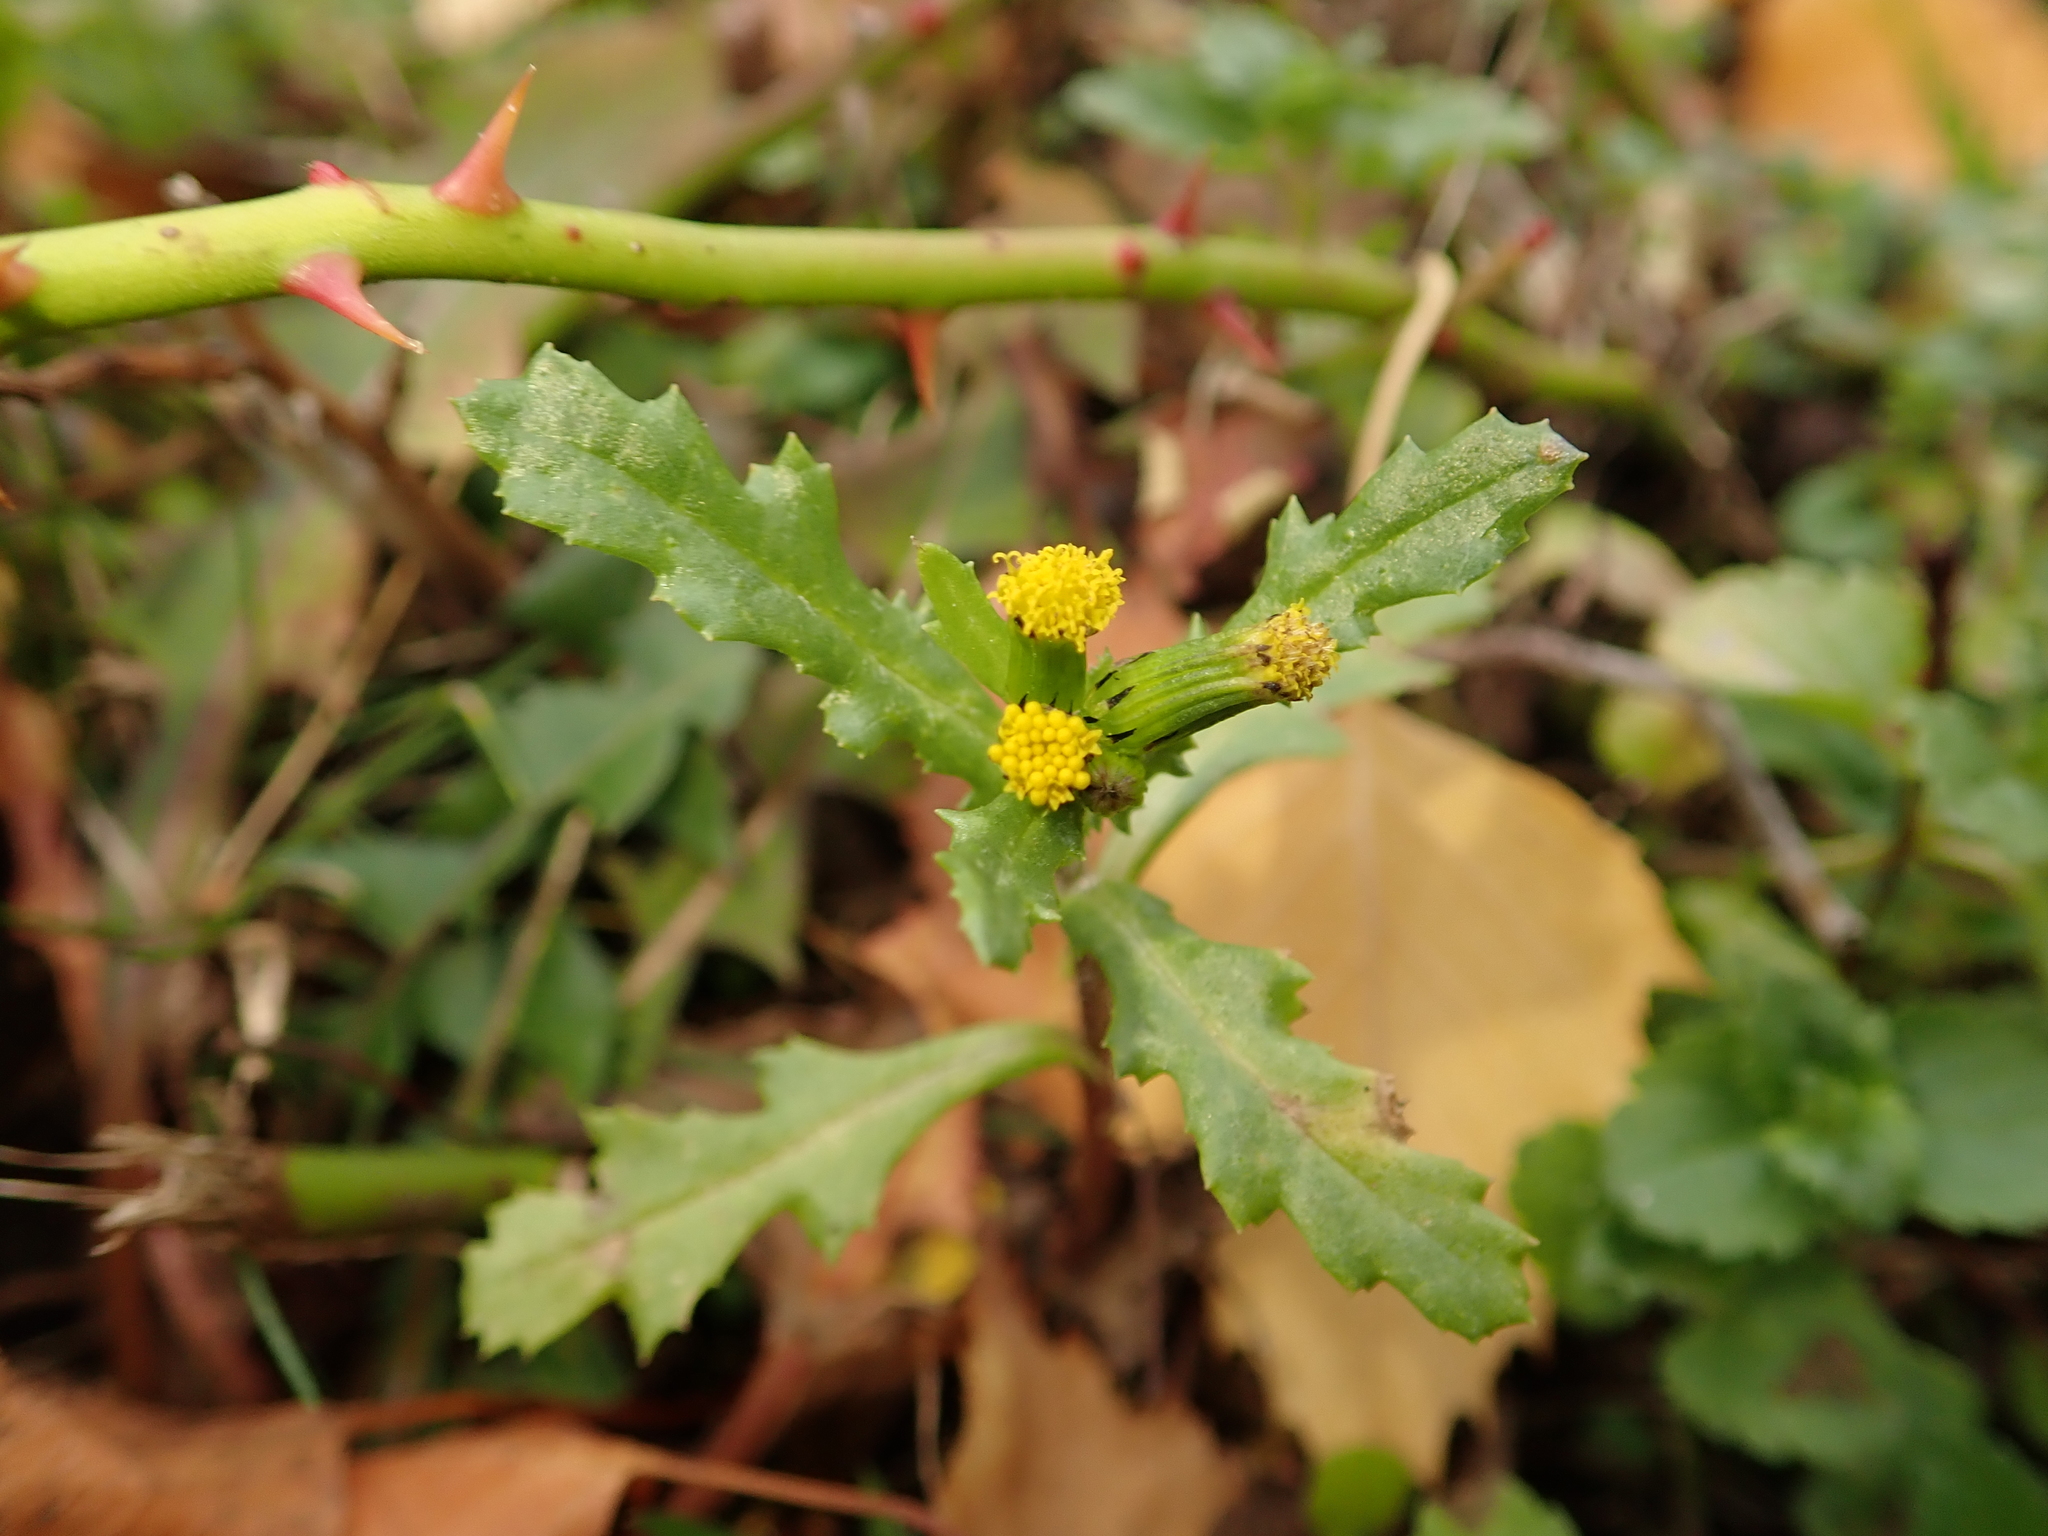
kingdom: Plantae
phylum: Tracheophyta
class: Magnoliopsida
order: Asterales
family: Asteraceae
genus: Senecio
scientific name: Senecio vulgaris
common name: Old-man-in-the-spring
